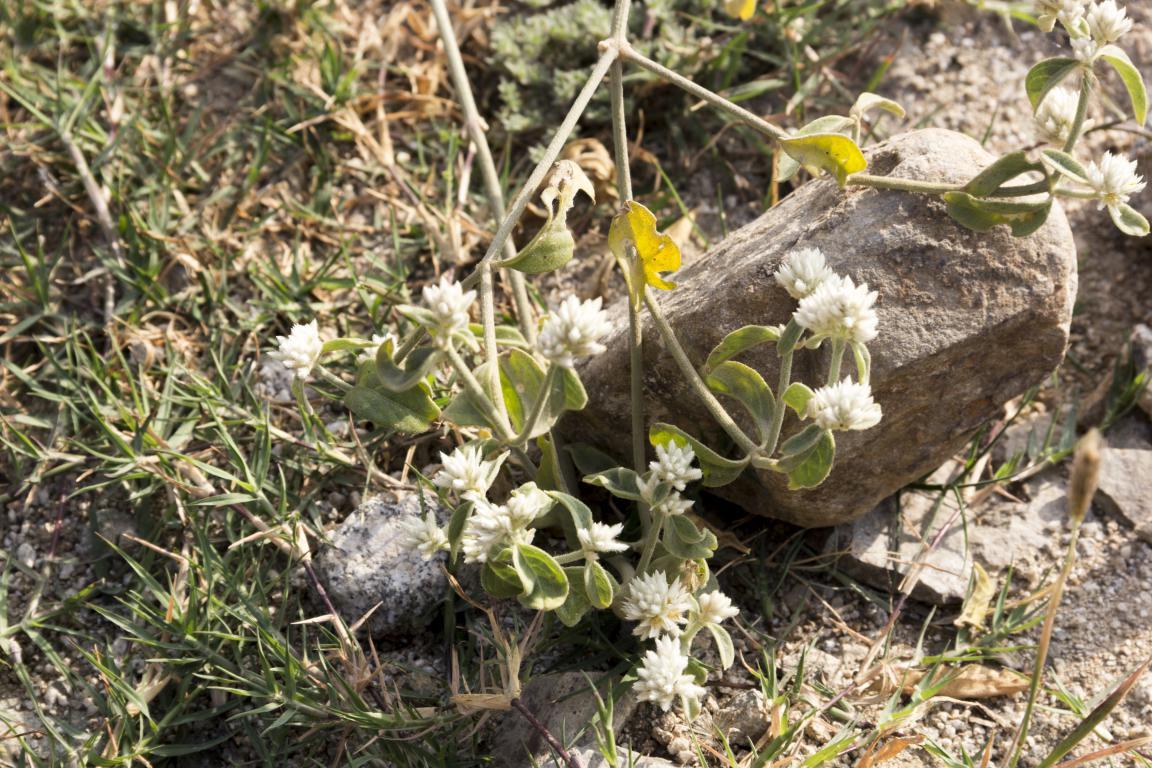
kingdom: Plantae
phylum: Tracheophyta
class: Magnoliopsida
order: Caryophyllales
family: Amaranthaceae
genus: Alternanthera
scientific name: Alternanthera halimifolia
